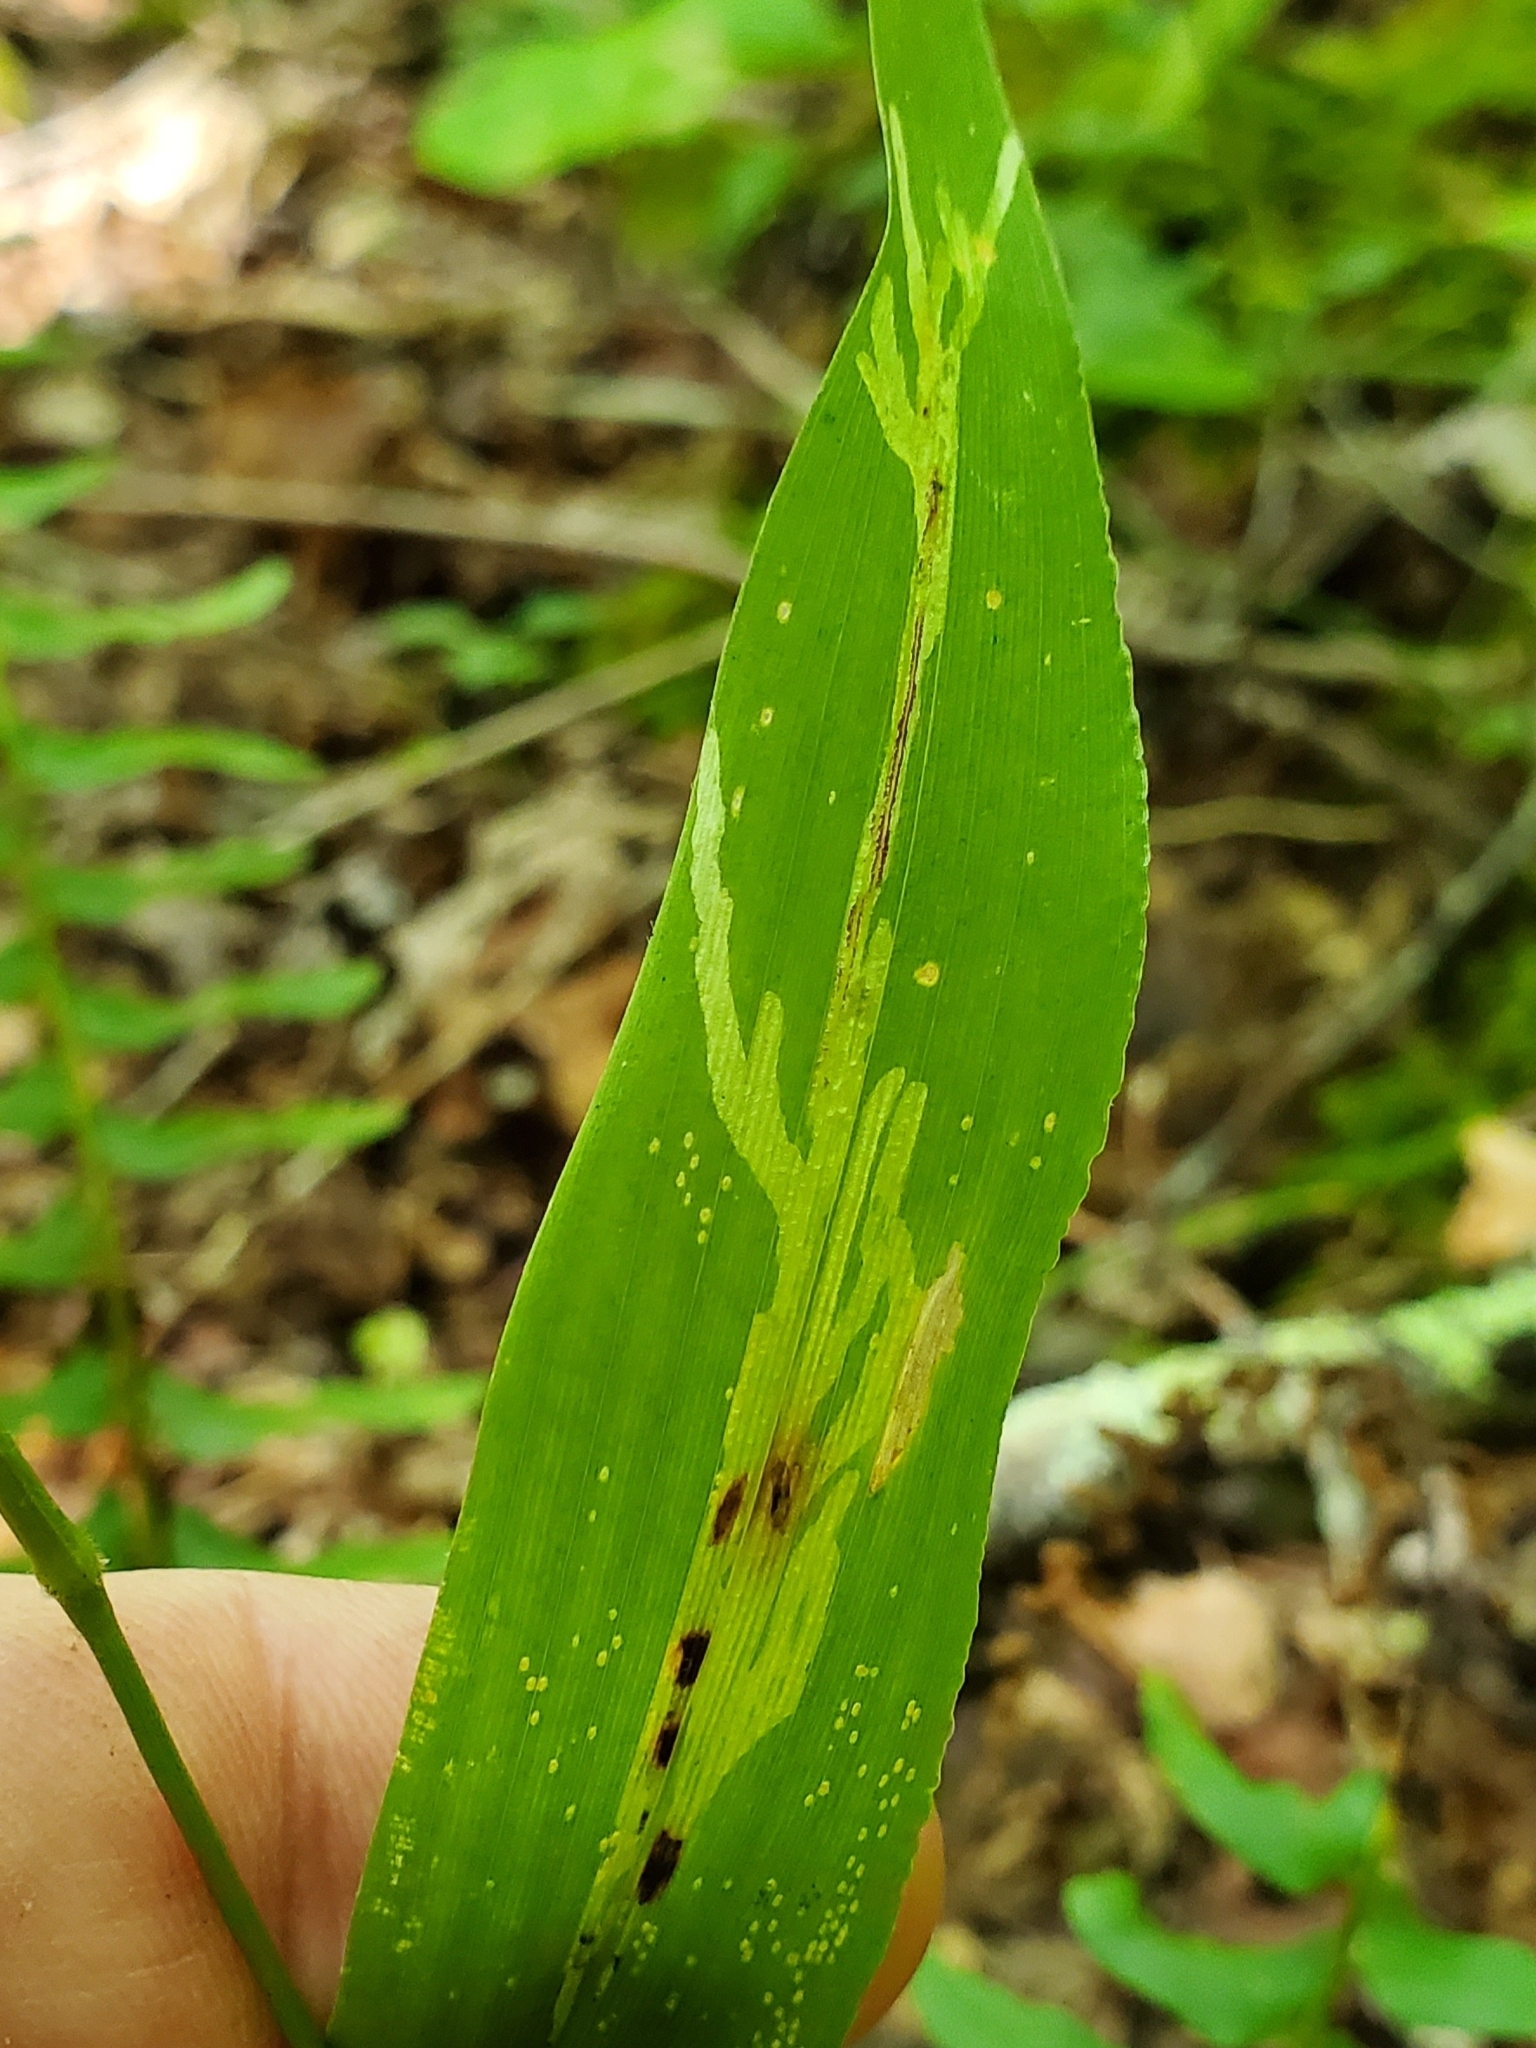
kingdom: Animalia
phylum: Arthropoda
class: Insecta
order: Diptera
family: Agromyzidae
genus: Cerodontha
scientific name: Cerodontha angulata
